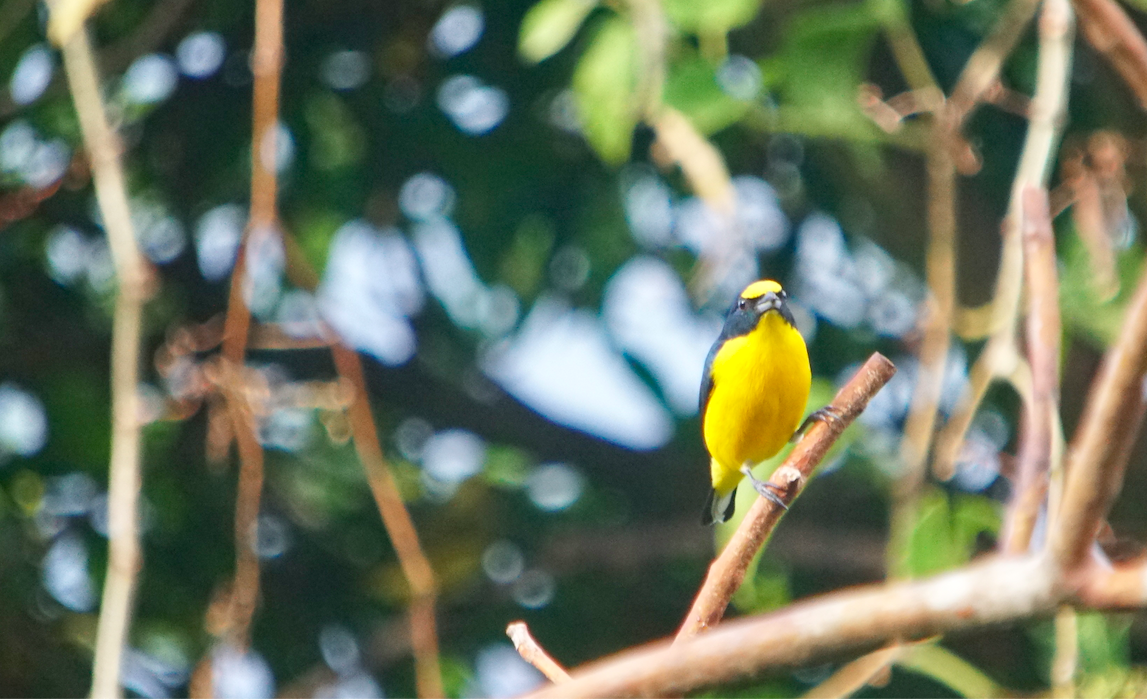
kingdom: Animalia
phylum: Chordata
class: Aves
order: Passeriformes
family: Fringillidae
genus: Euphonia
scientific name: Euphonia hirundinacea
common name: Yellow-throated euphonia
